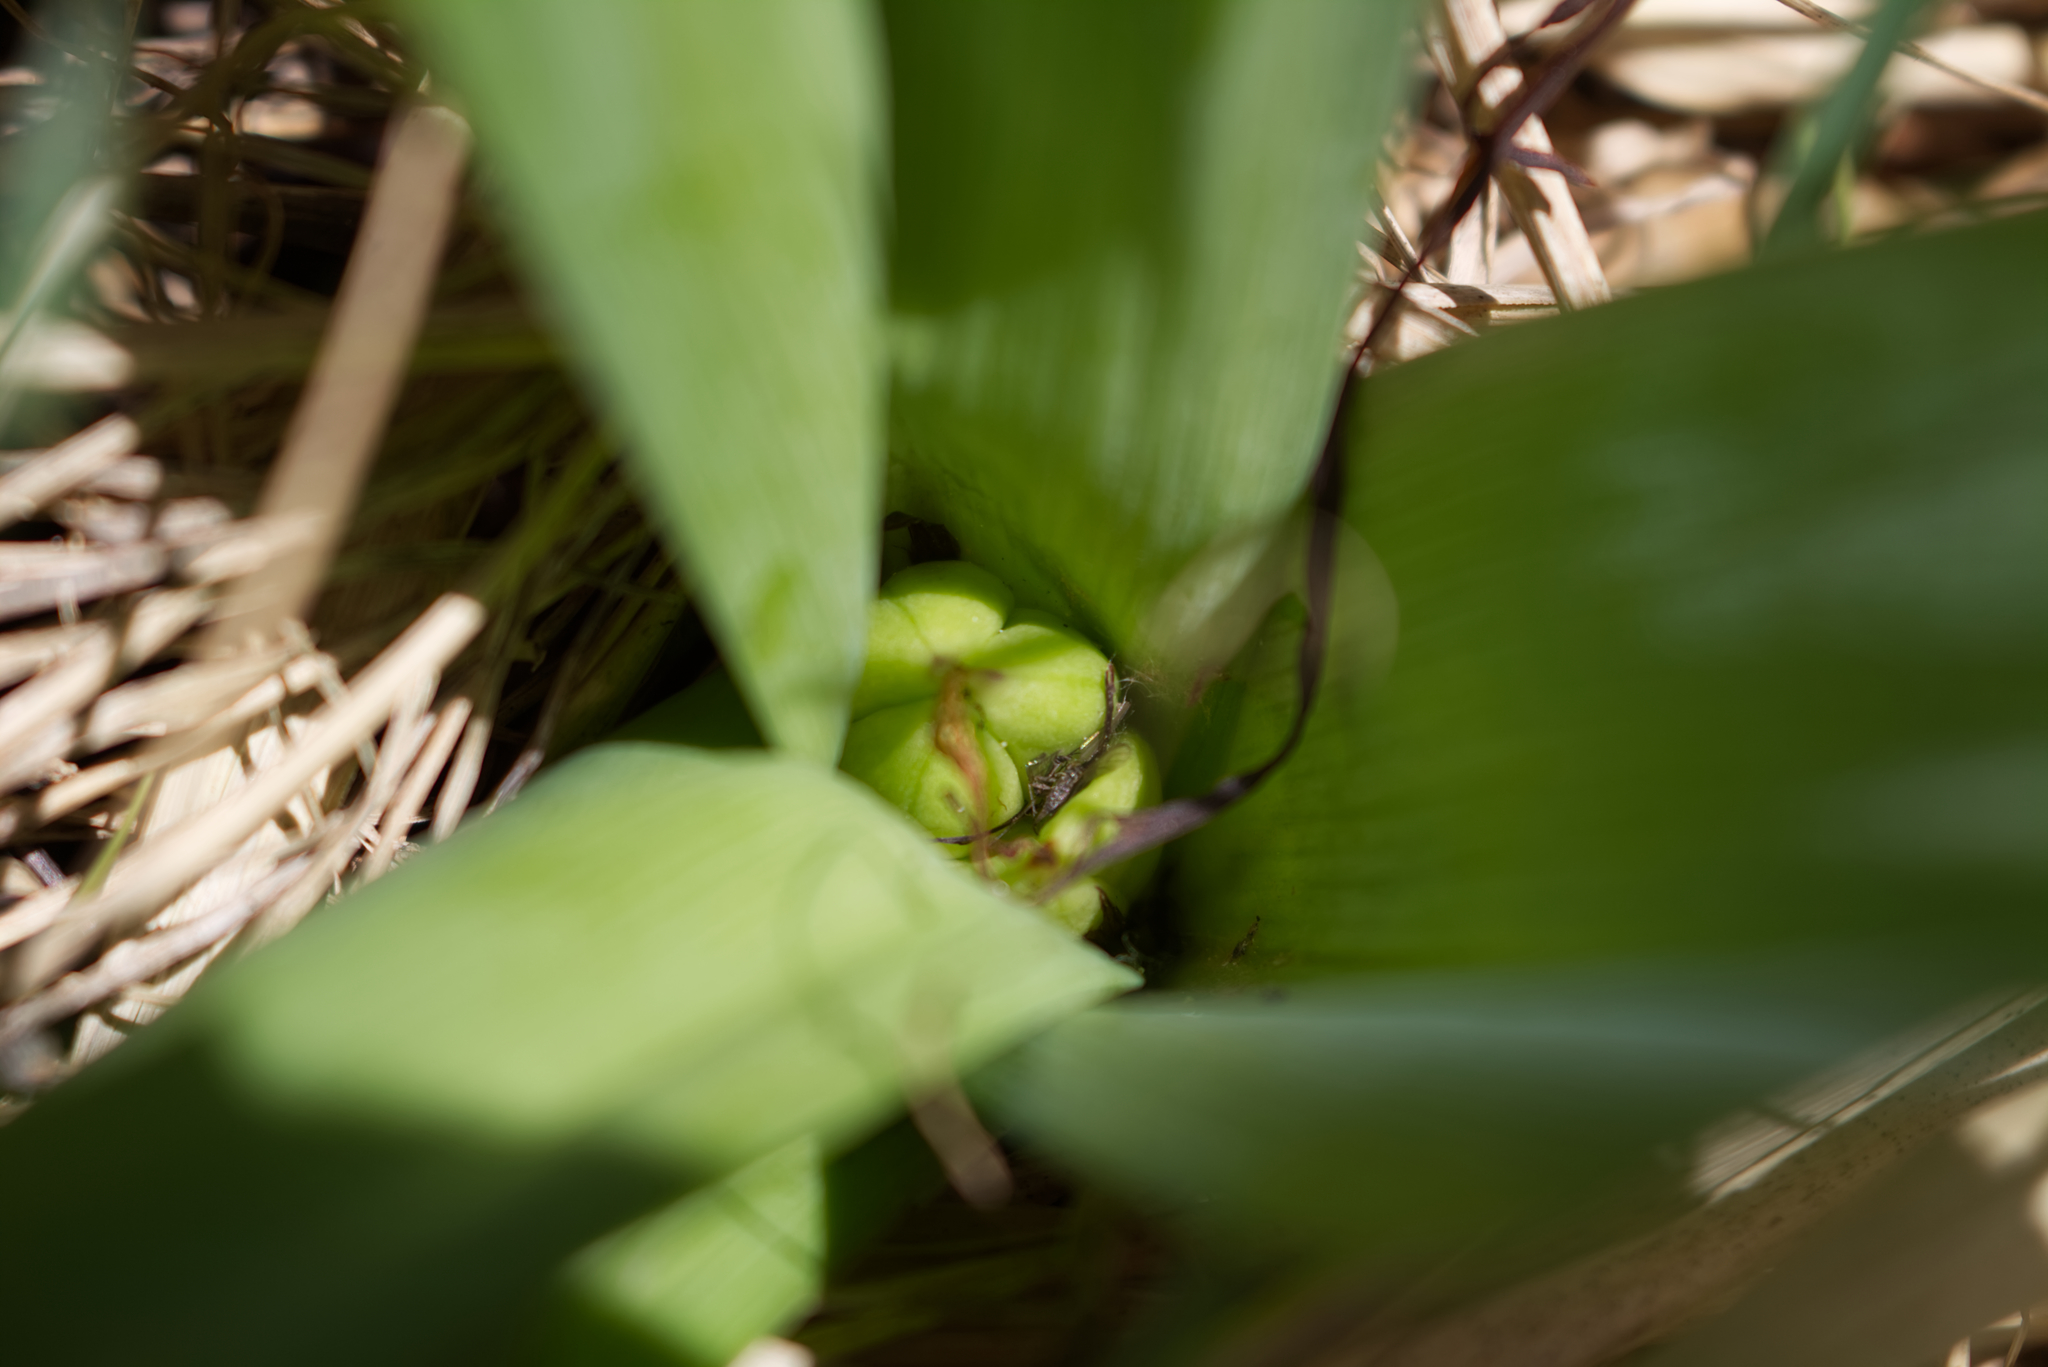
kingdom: Plantae
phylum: Tracheophyta
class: Liliopsida
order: Liliales
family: Colchicaceae
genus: Colchicum
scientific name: Colchicum autumnale
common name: Autumn crocus
